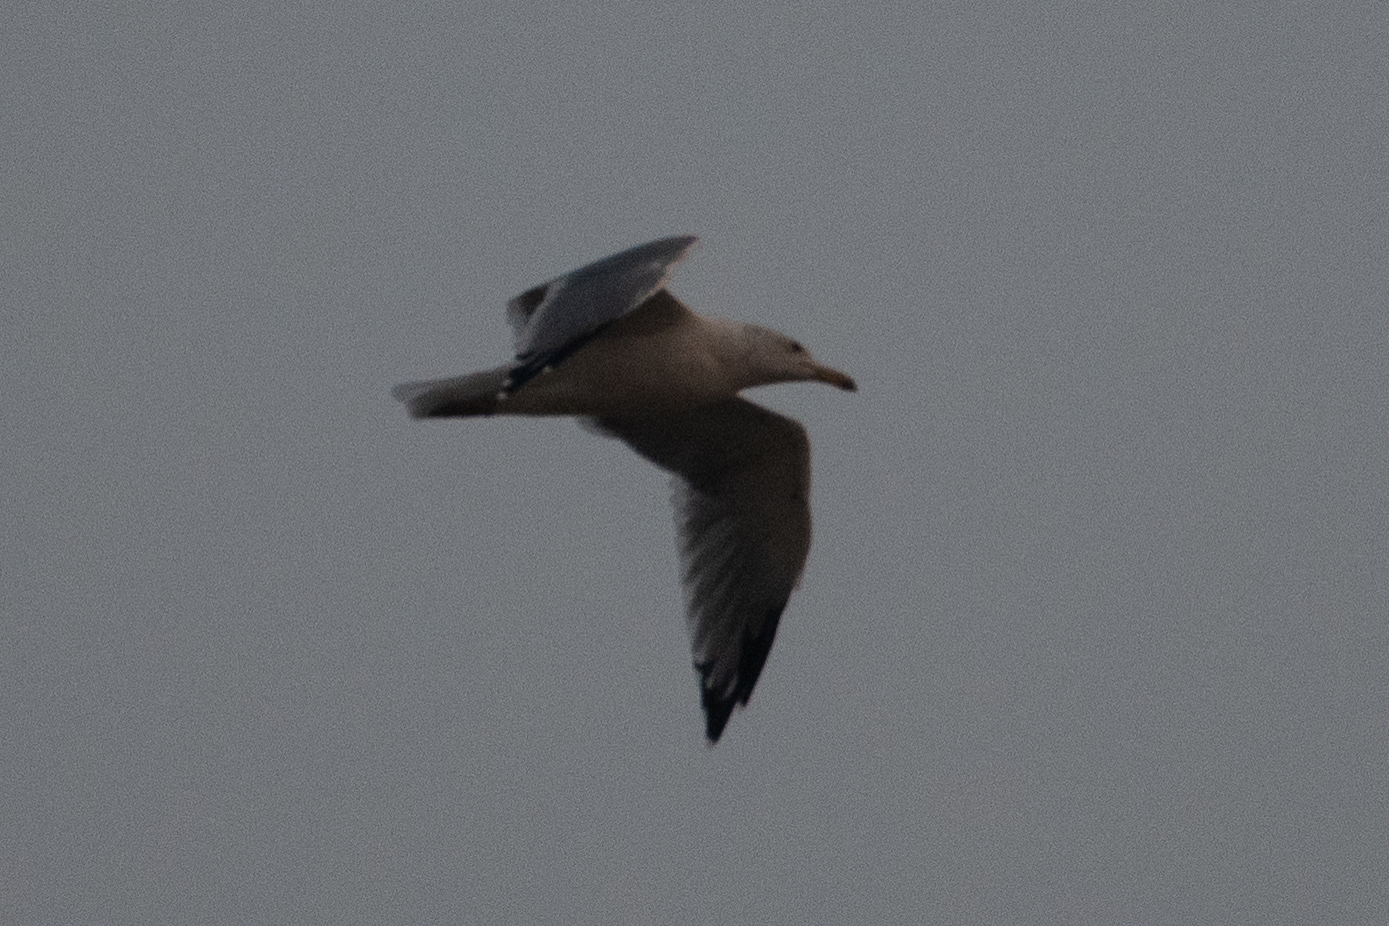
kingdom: Animalia
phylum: Chordata
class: Aves
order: Charadriiformes
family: Laridae
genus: Larus
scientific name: Larus californicus
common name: California gull
